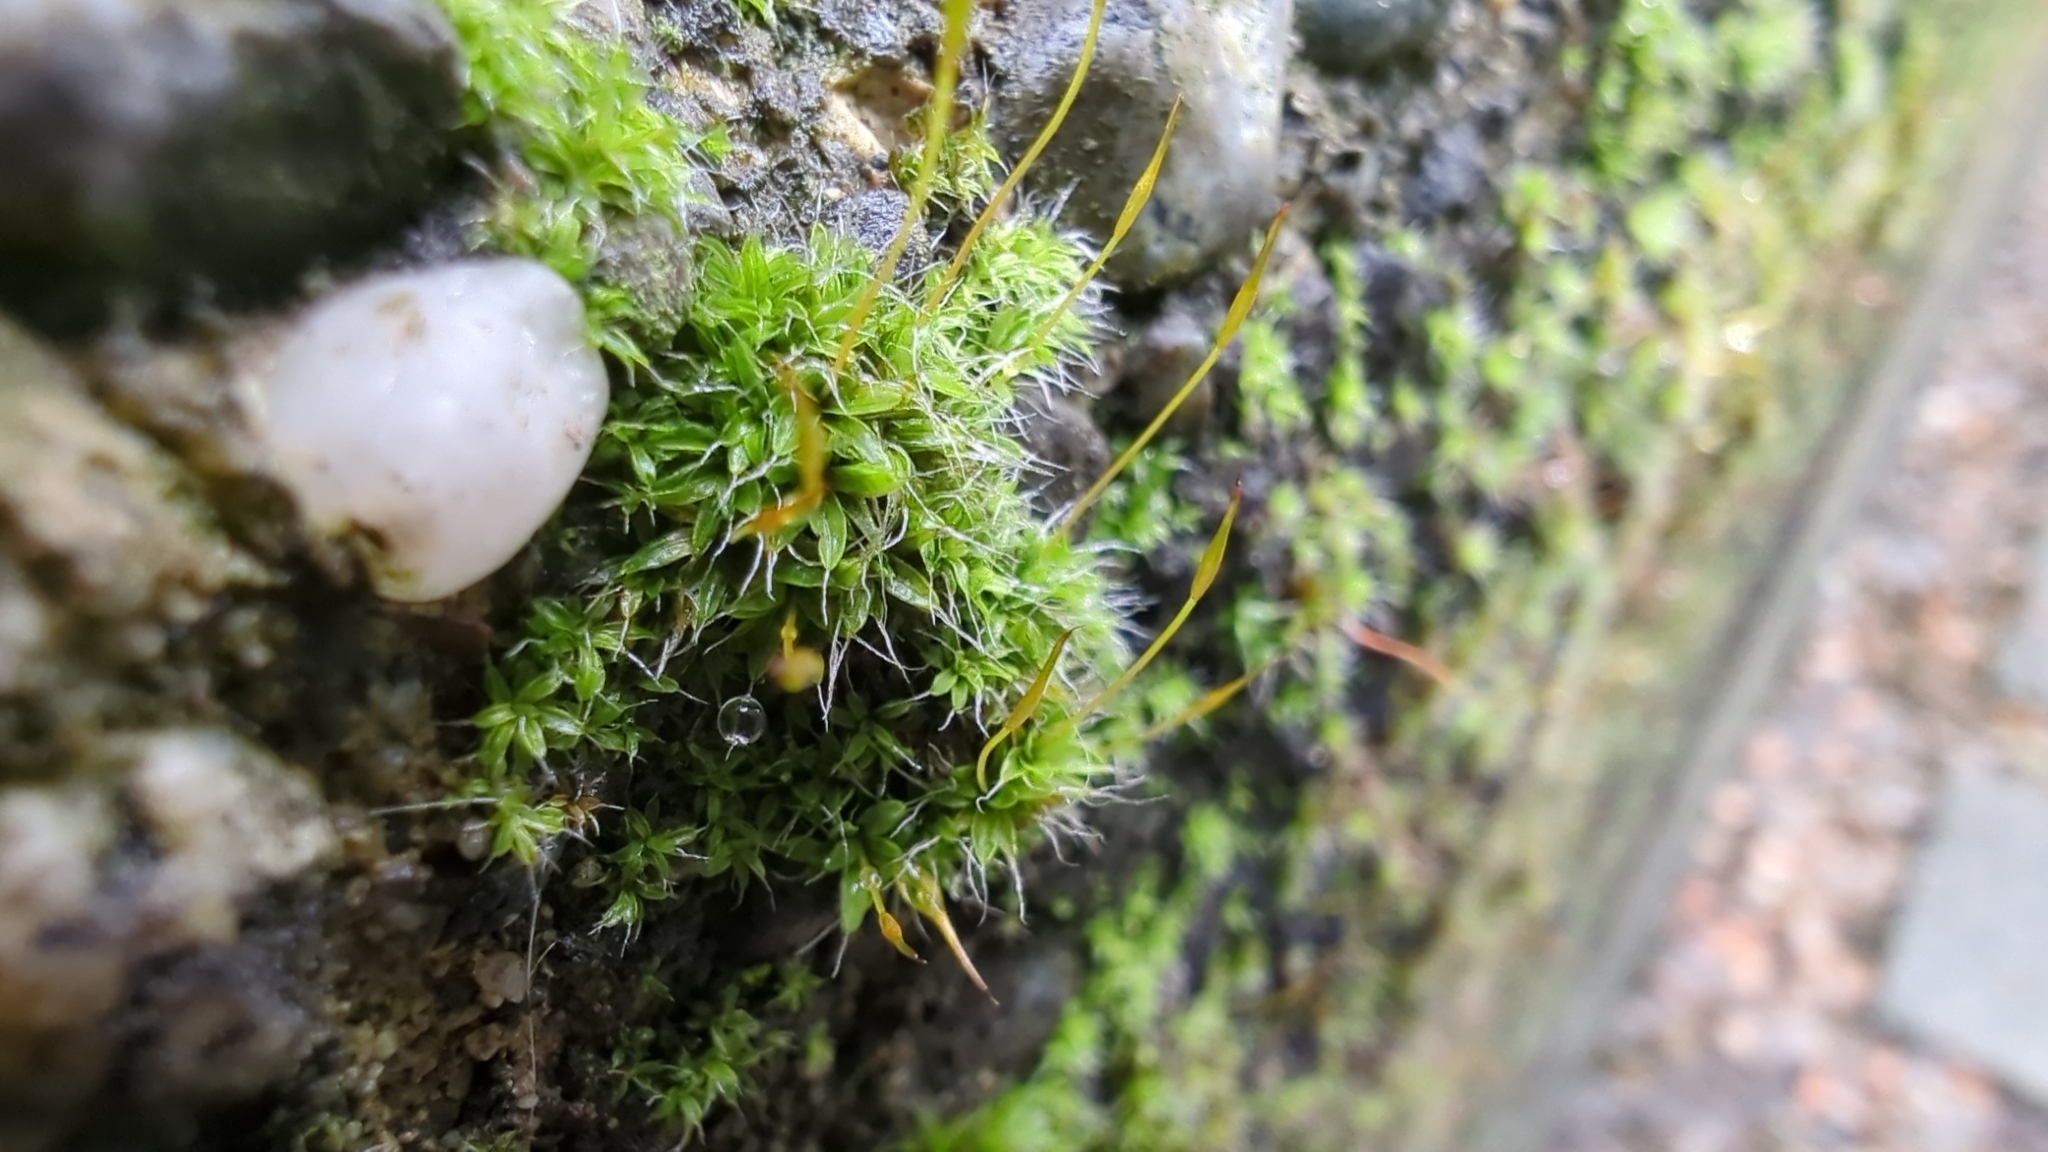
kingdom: Plantae
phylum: Bryophyta
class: Bryopsida
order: Pottiales
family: Pottiaceae
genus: Tortula
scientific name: Tortula muralis
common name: Wall screw-moss
